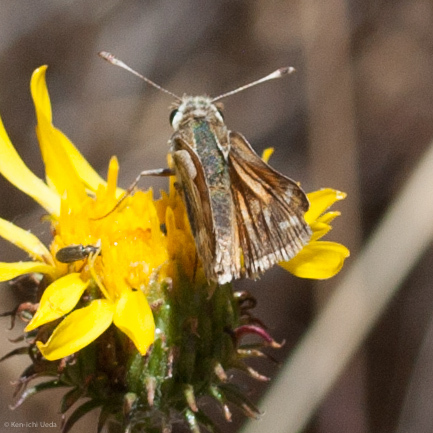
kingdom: Animalia
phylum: Arthropoda
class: Insecta
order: Lepidoptera
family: Hesperiidae
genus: Hesperia
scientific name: Hesperia lindseyi
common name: Lindsey's skipper
